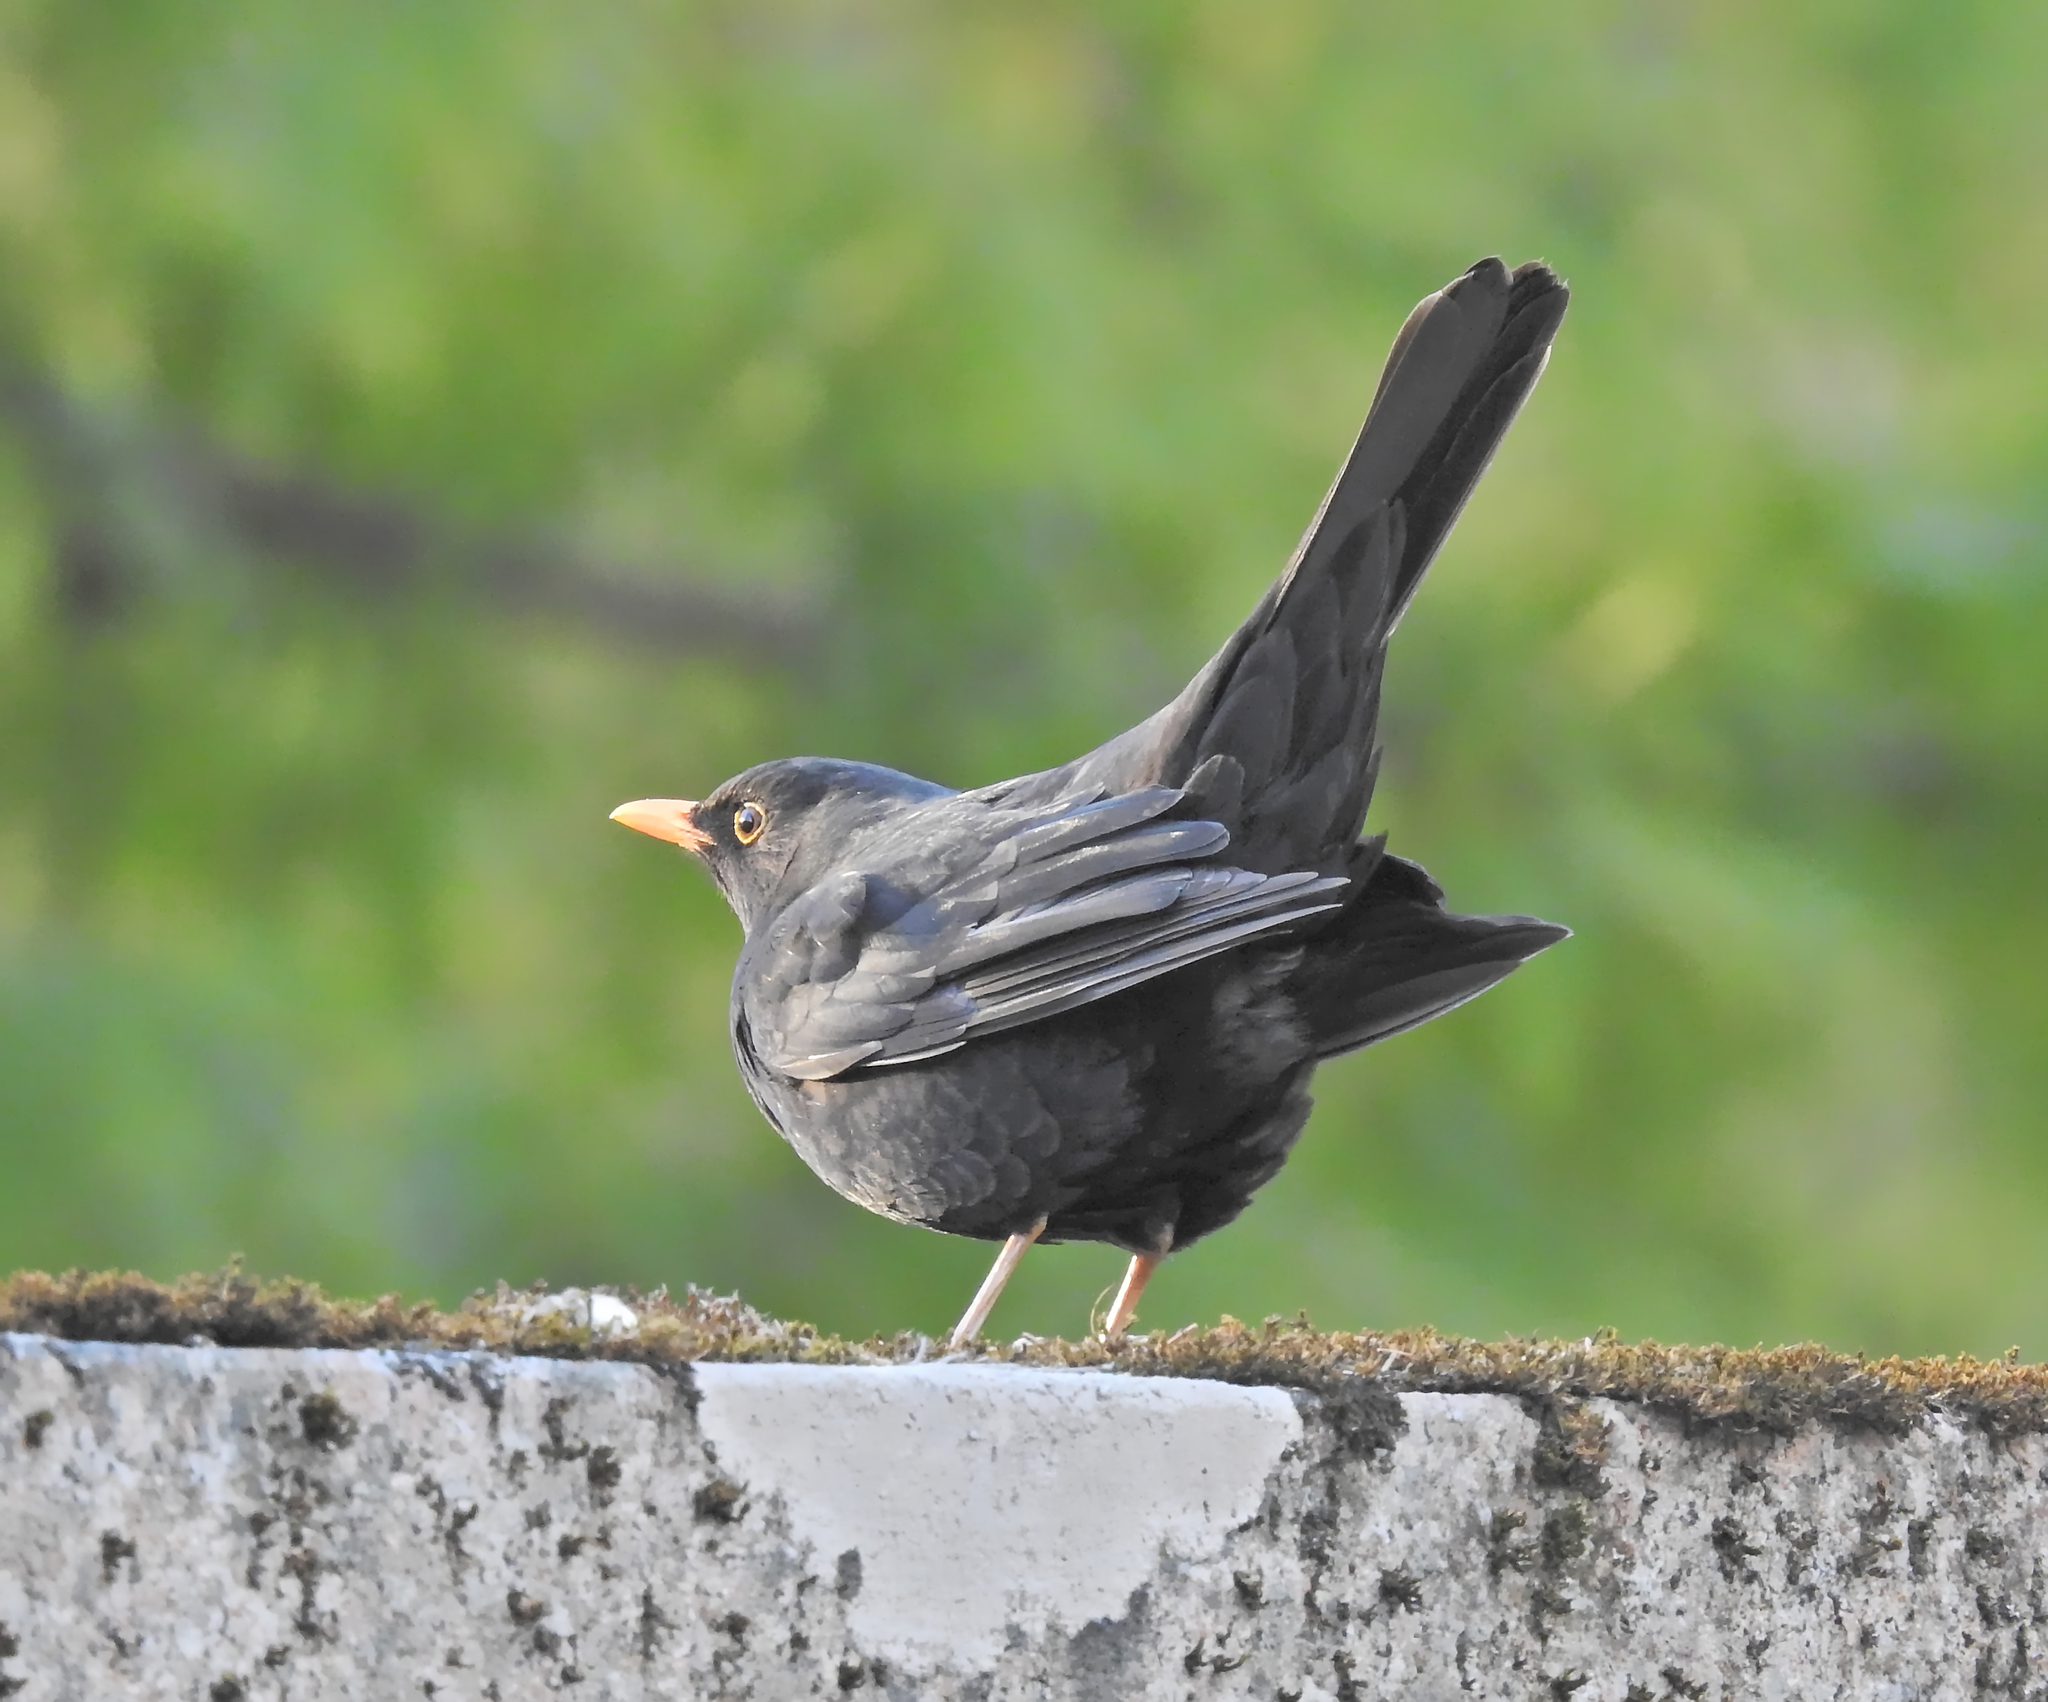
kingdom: Animalia
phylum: Chordata
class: Aves
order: Passeriformes
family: Turdidae
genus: Turdus
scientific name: Turdus merula
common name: Common blackbird
